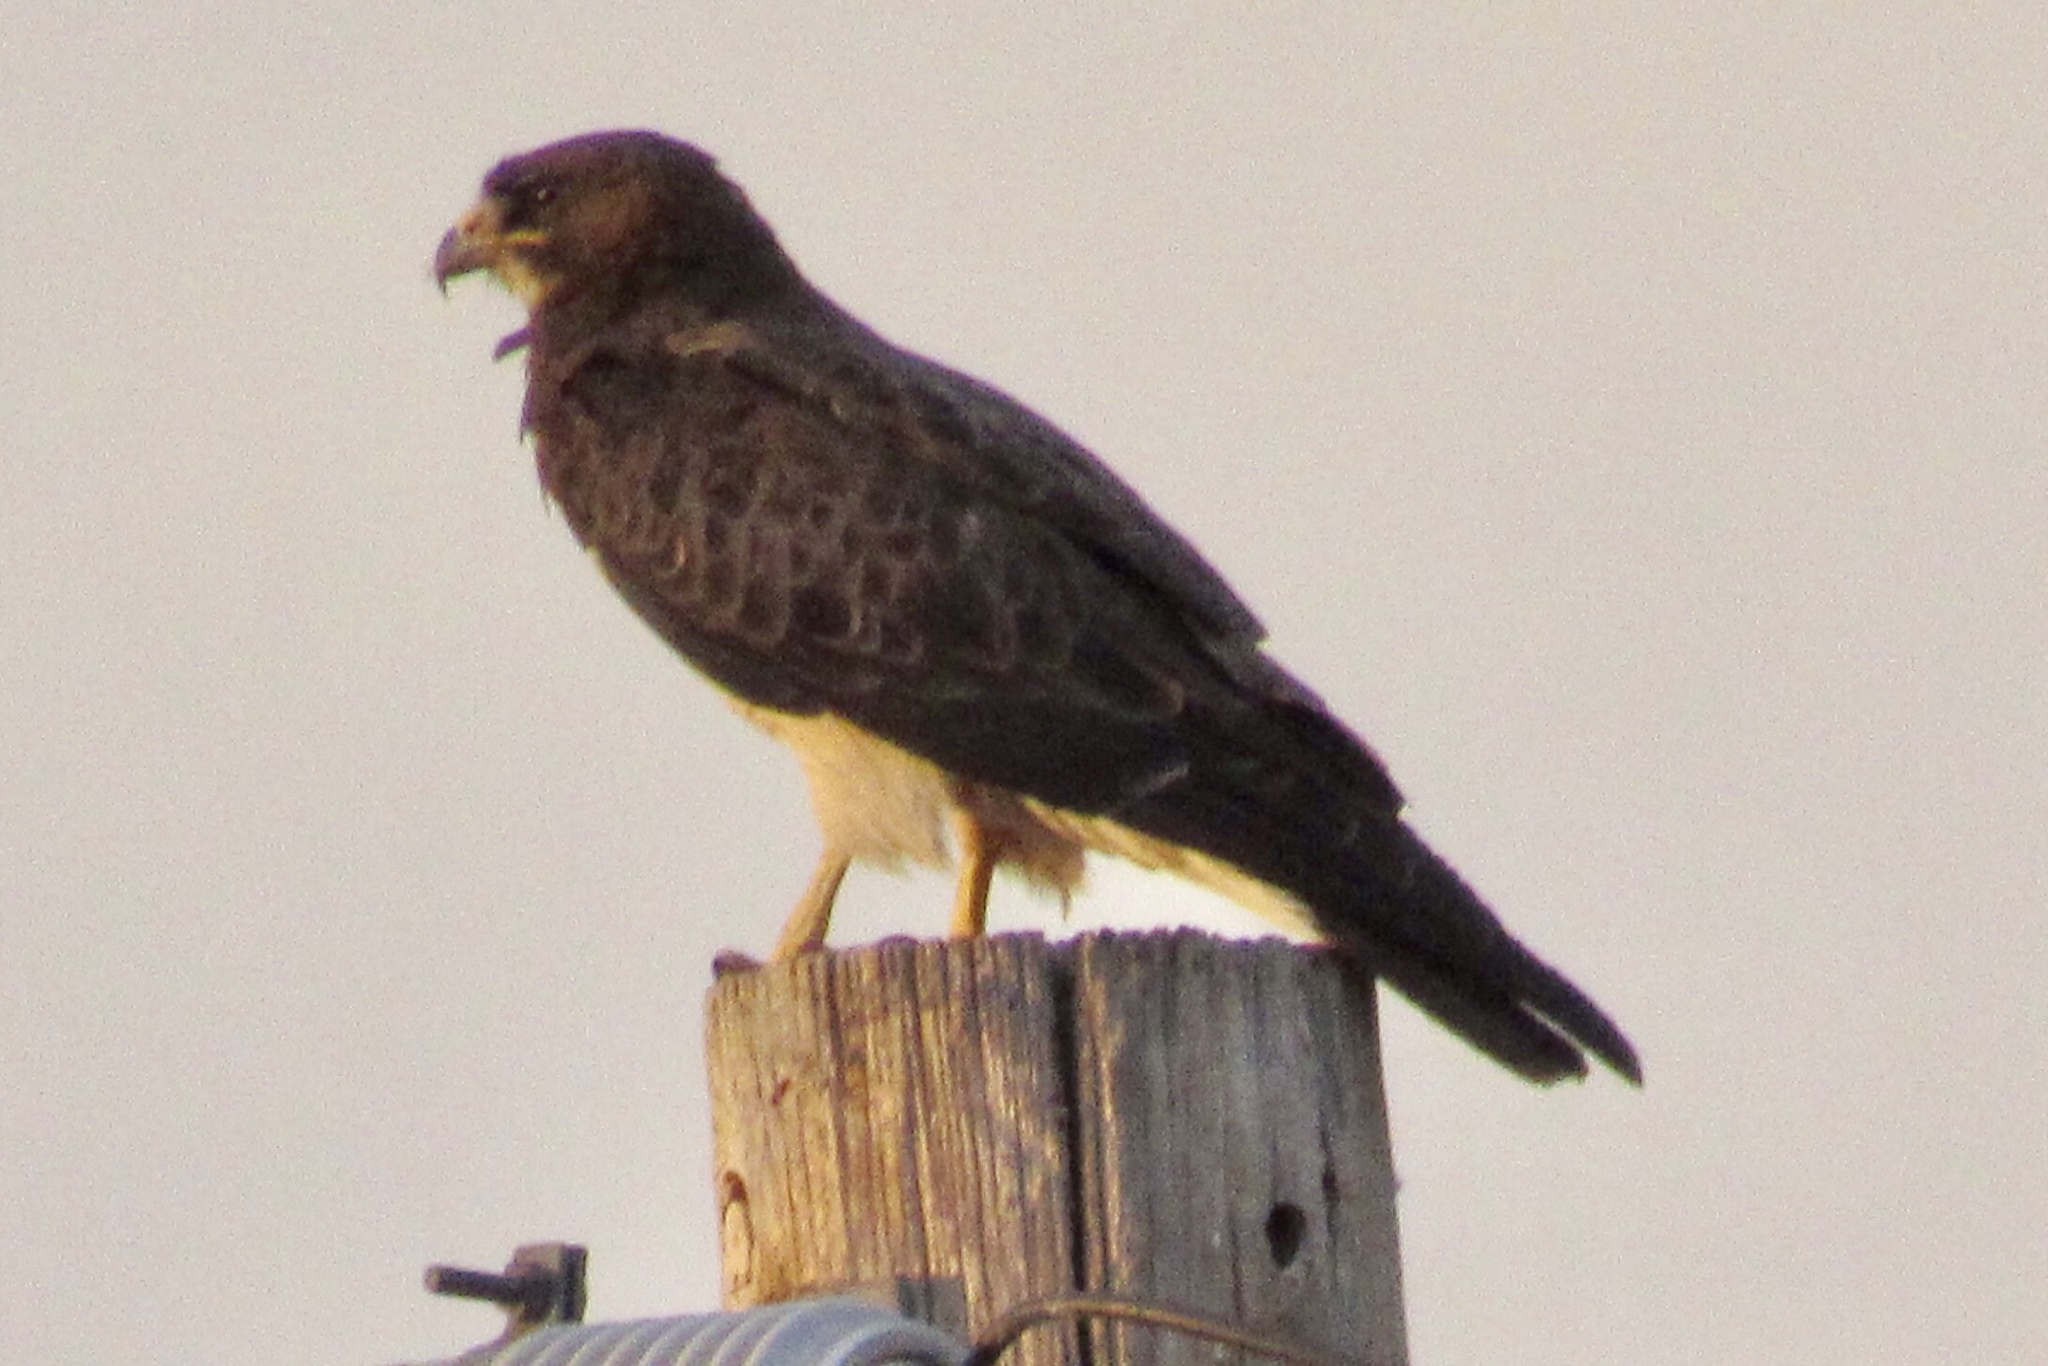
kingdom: Animalia
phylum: Chordata
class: Aves
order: Accipitriformes
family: Accipitridae
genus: Buteo
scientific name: Buteo swainsoni
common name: Swainson's hawk
